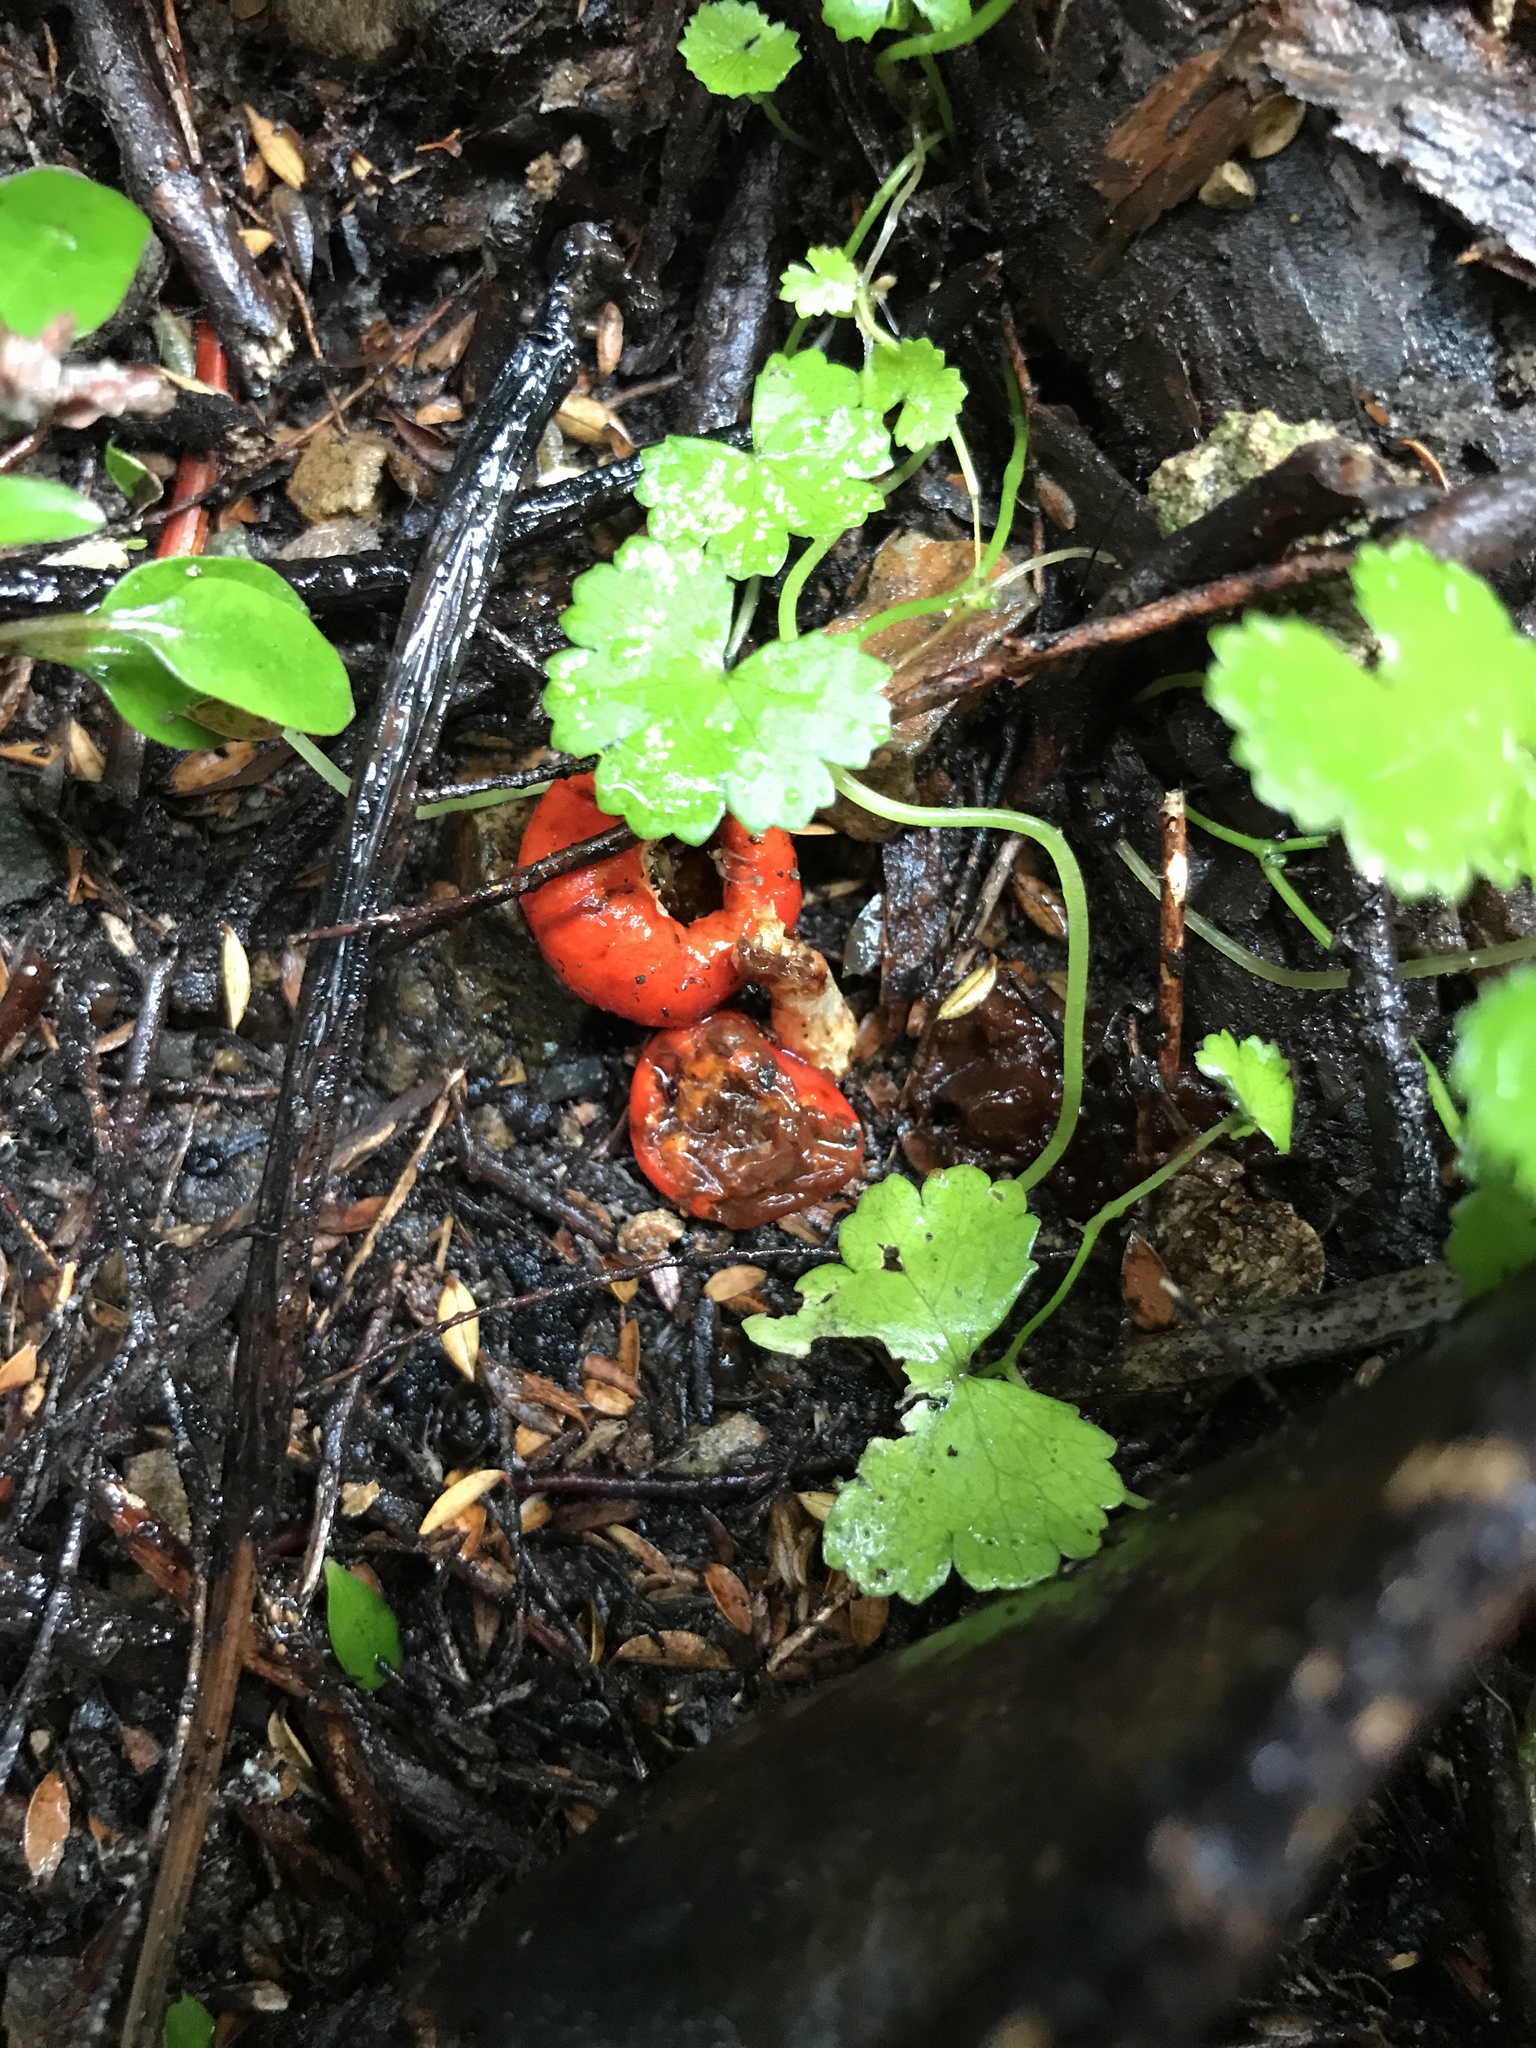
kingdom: Fungi
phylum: Basidiomycota
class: Agaricomycetes
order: Agaricales
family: Strophariaceae
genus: Leratiomyces
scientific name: Leratiomyces erythrocephalus
